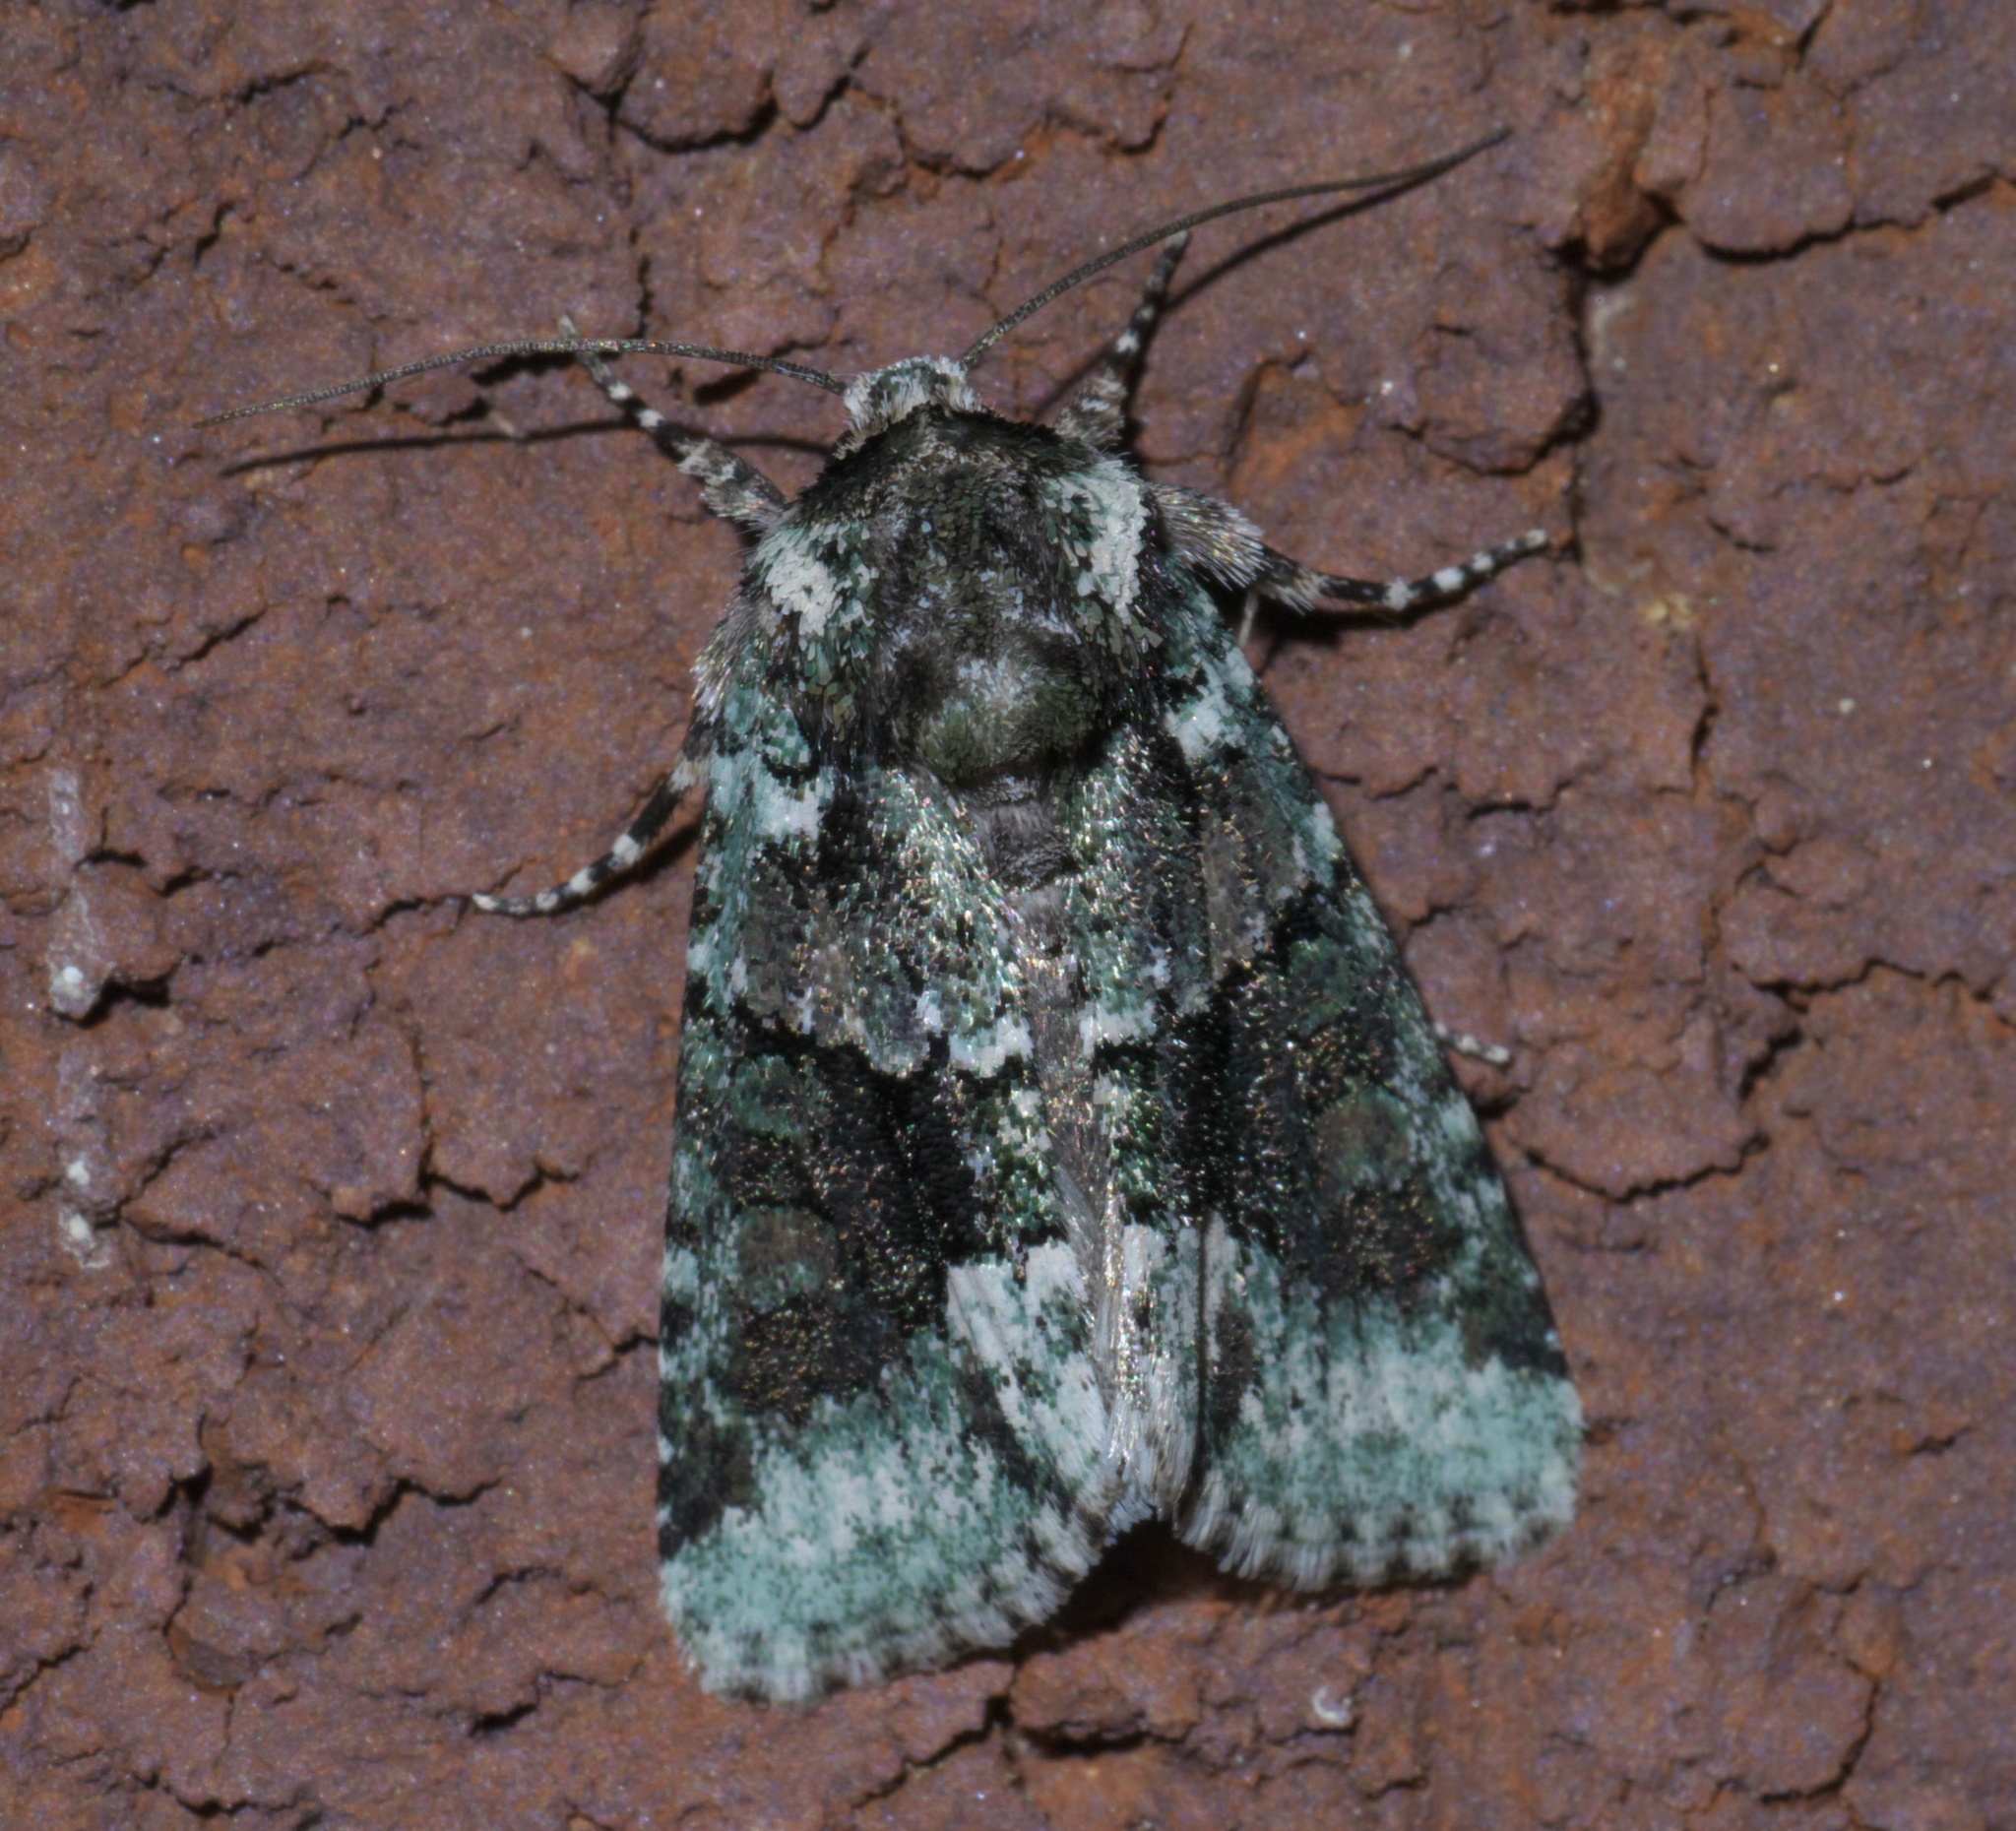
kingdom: Animalia
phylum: Arthropoda
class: Insecta
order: Lepidoptera
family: Noctuidae
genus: Lacinipolia
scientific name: Lacinipolia explicata
